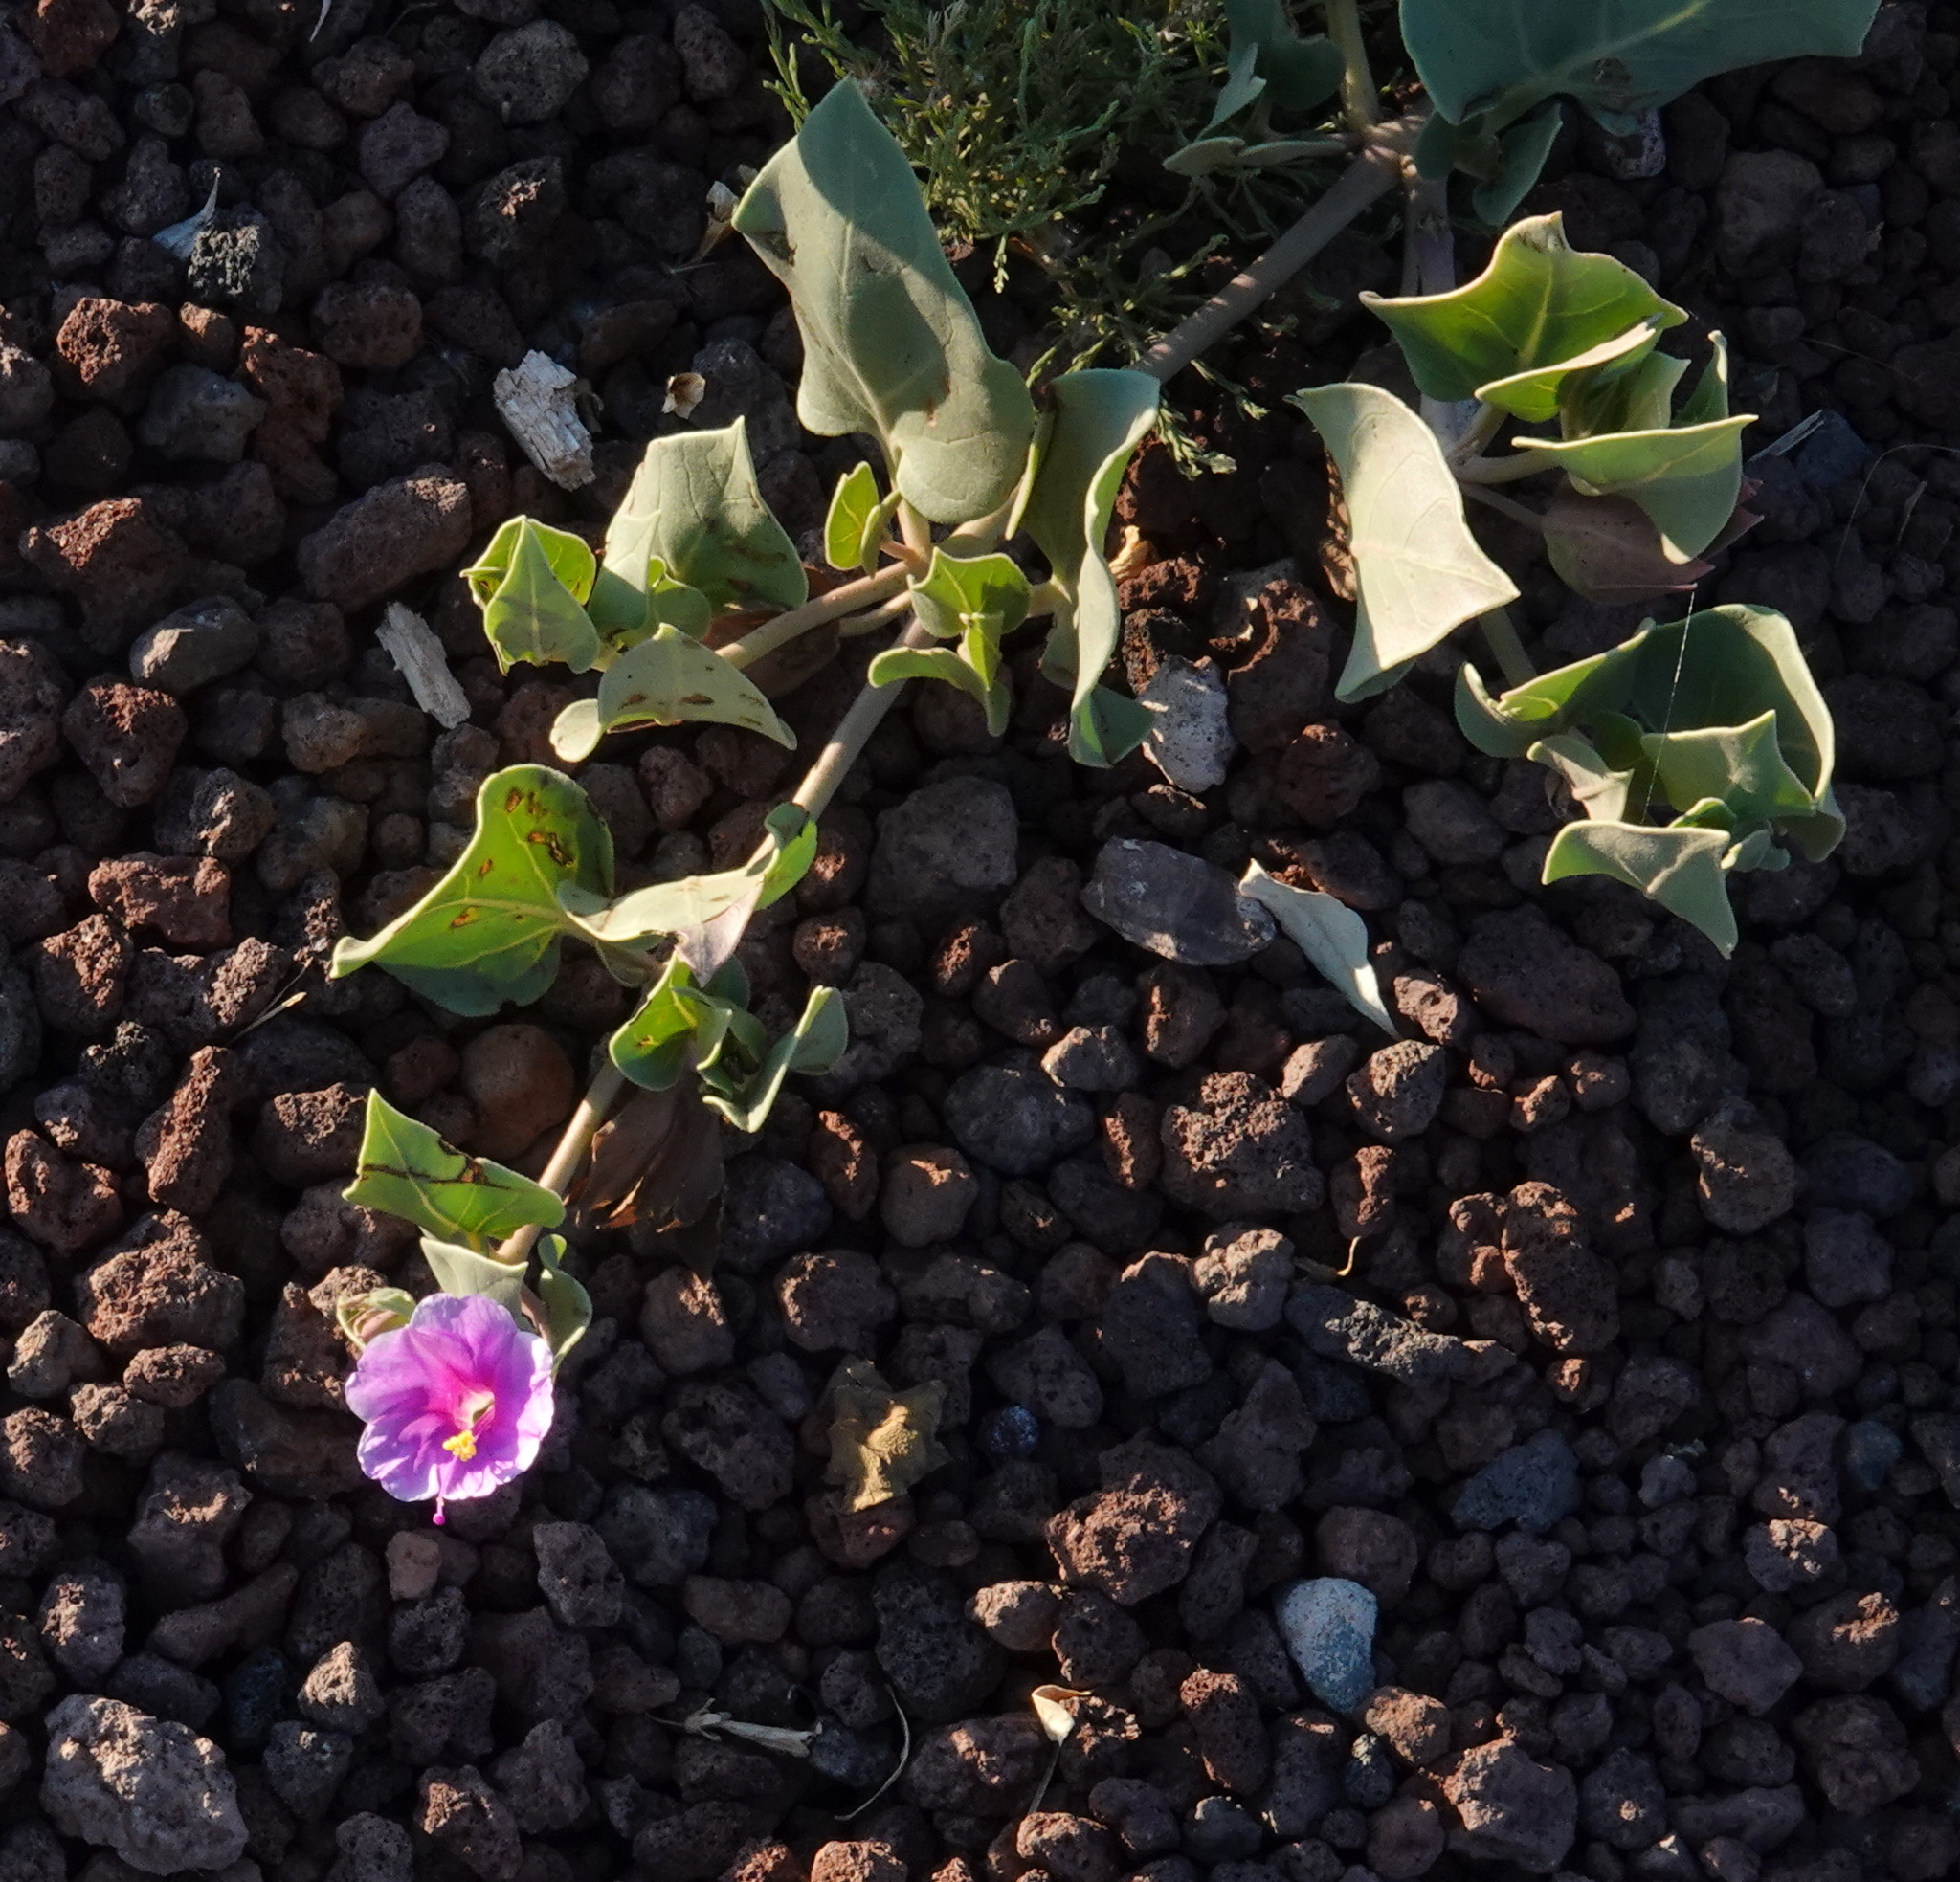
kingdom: Plantae
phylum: Tracheophyta
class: Magnoliopsida
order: Caryophyllales
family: Nyctaginaceae
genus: Mirabilis
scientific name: Mirabilis multiflora
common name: Froebel's four-o'clock
